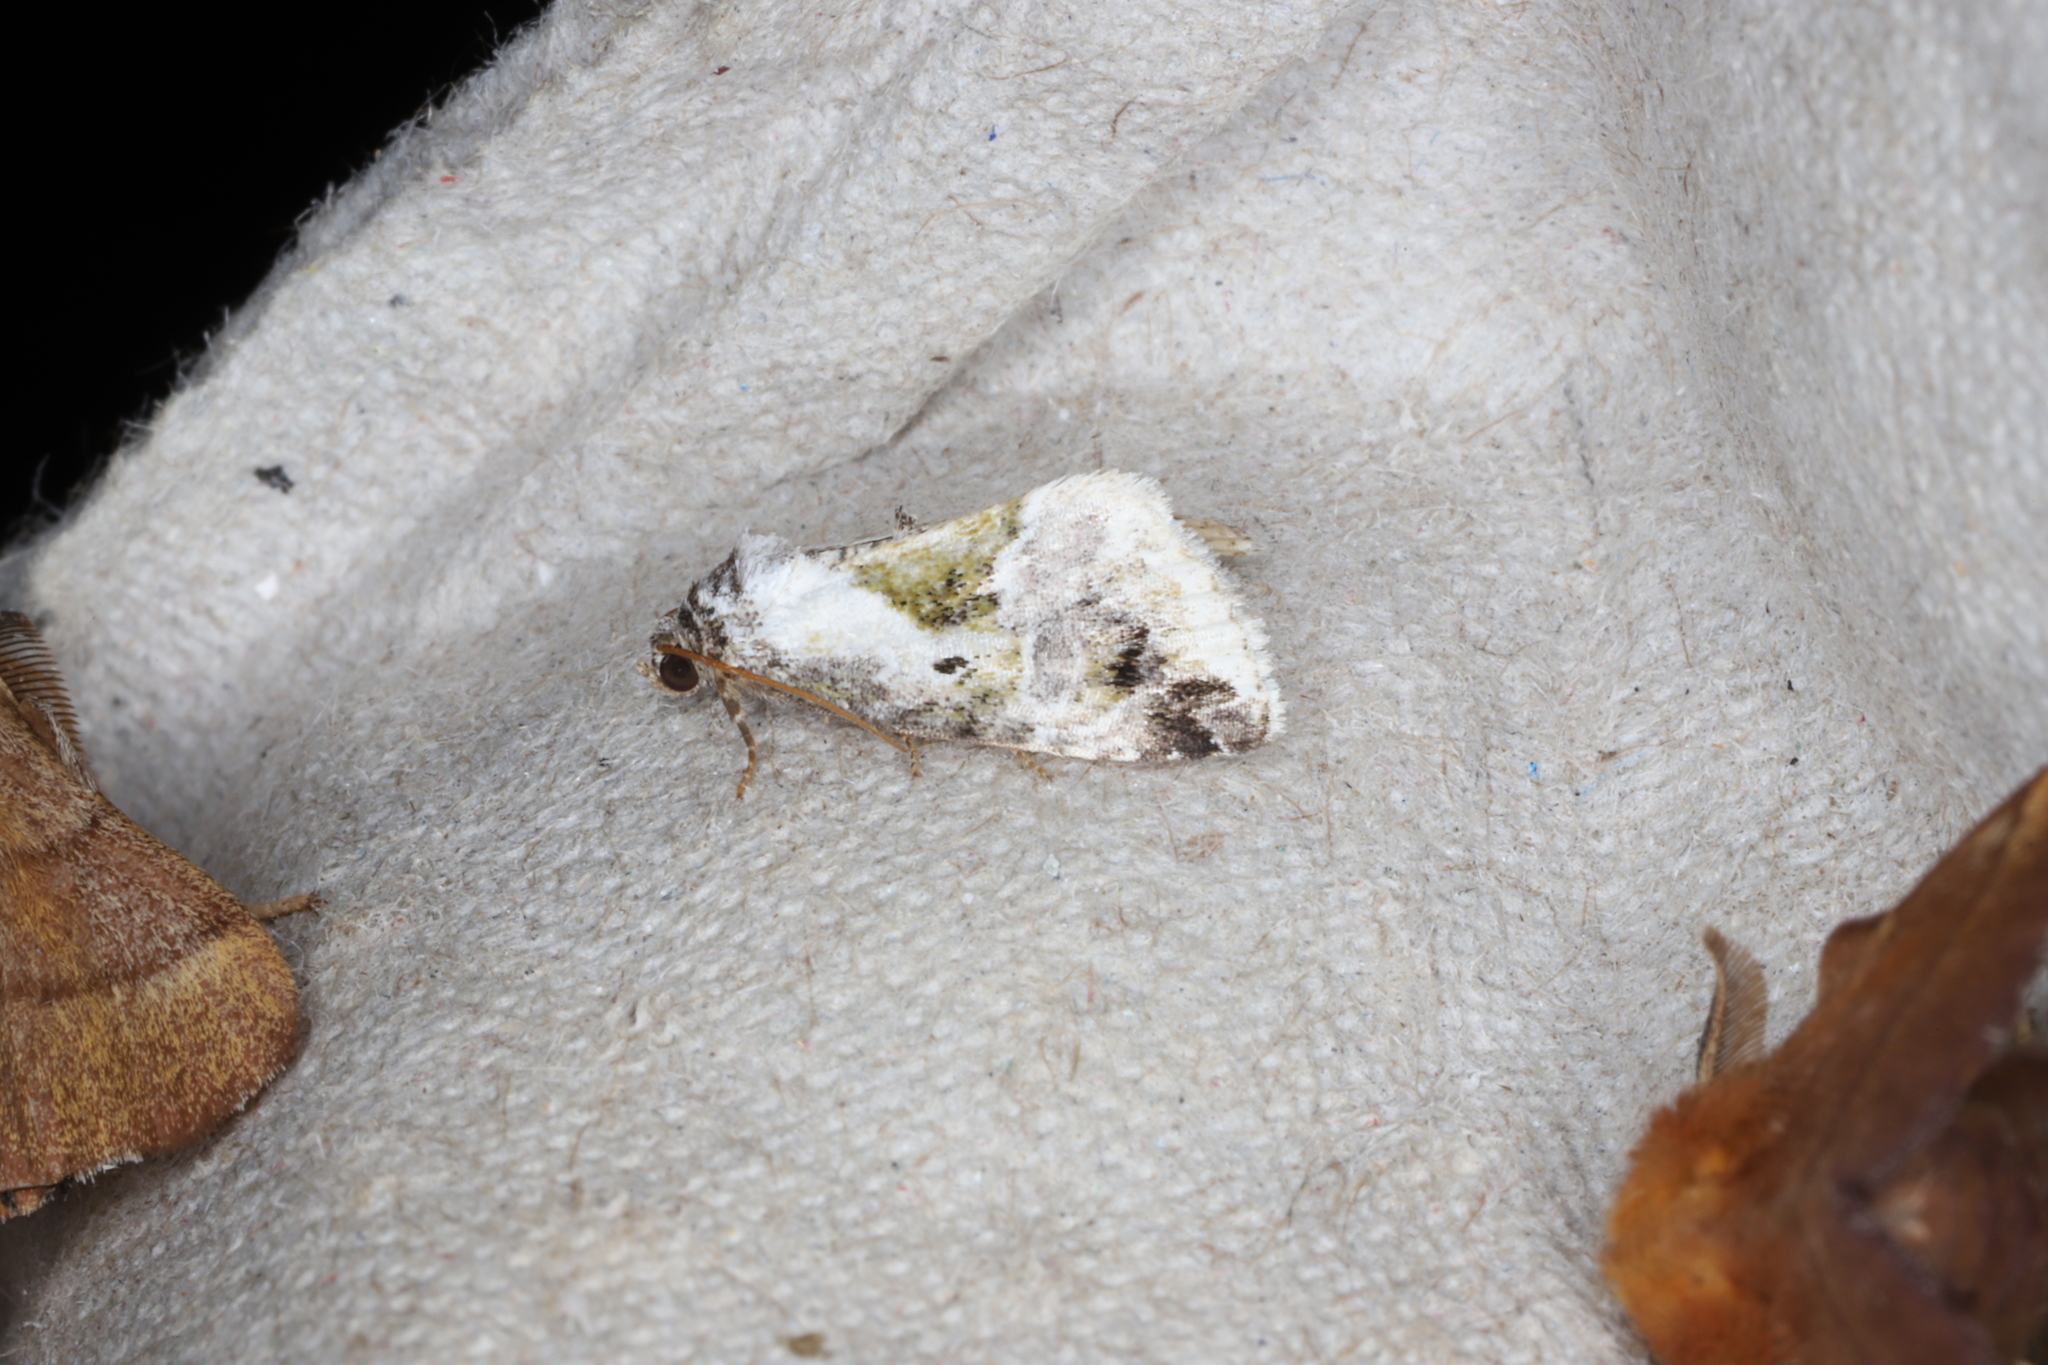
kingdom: Animalia
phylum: Arthropoda
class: Insecta
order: Lepidoptera
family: Noctuidae
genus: Maliattha
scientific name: Maliattha synochitis
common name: Black-dotted glyph
